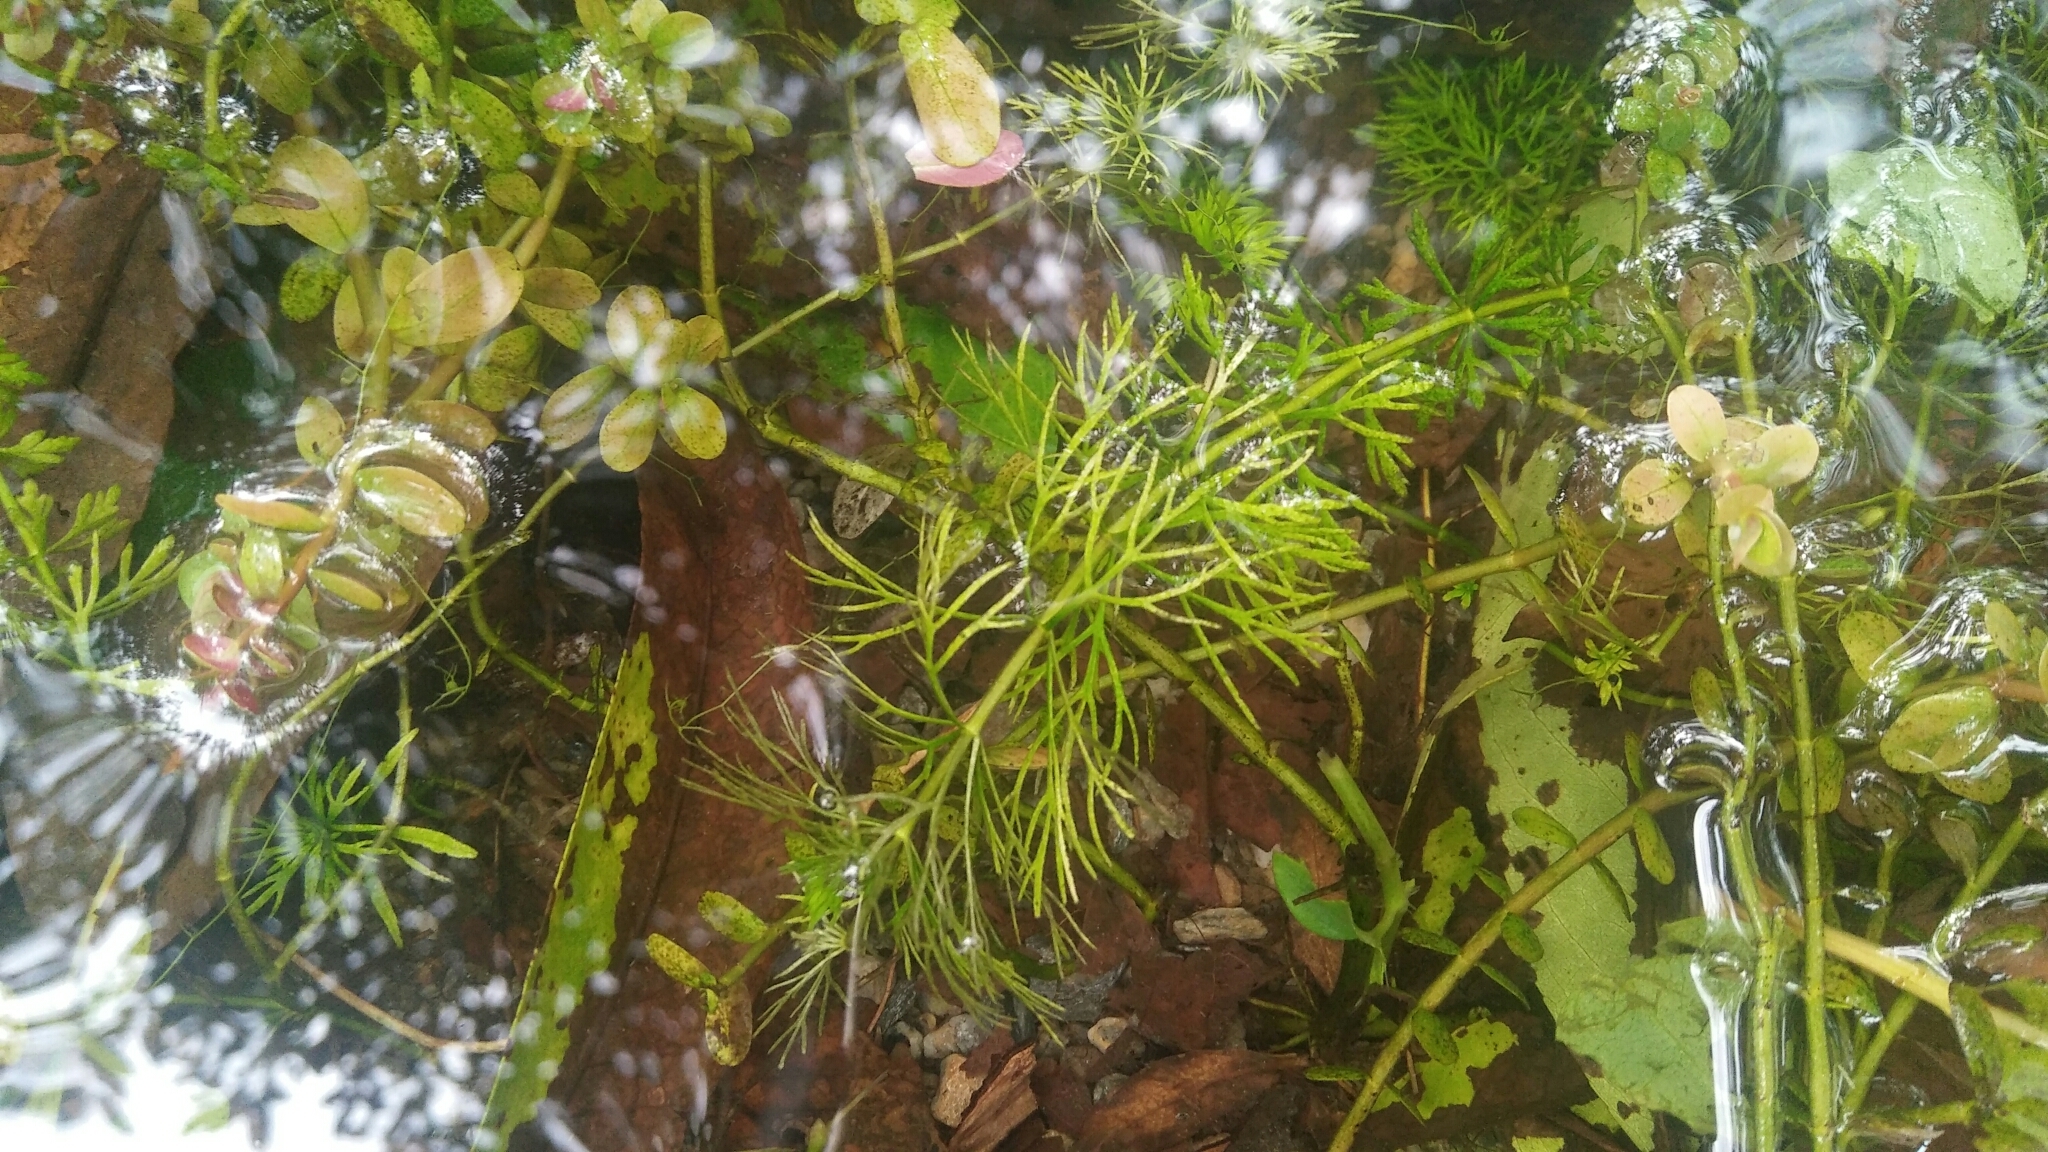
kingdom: Plantae
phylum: Tracheophyta
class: Magnoliopsida
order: Lamiales
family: Plantaginaceae
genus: Limnophila
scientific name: Limnophila indica
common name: Indian marshweed
